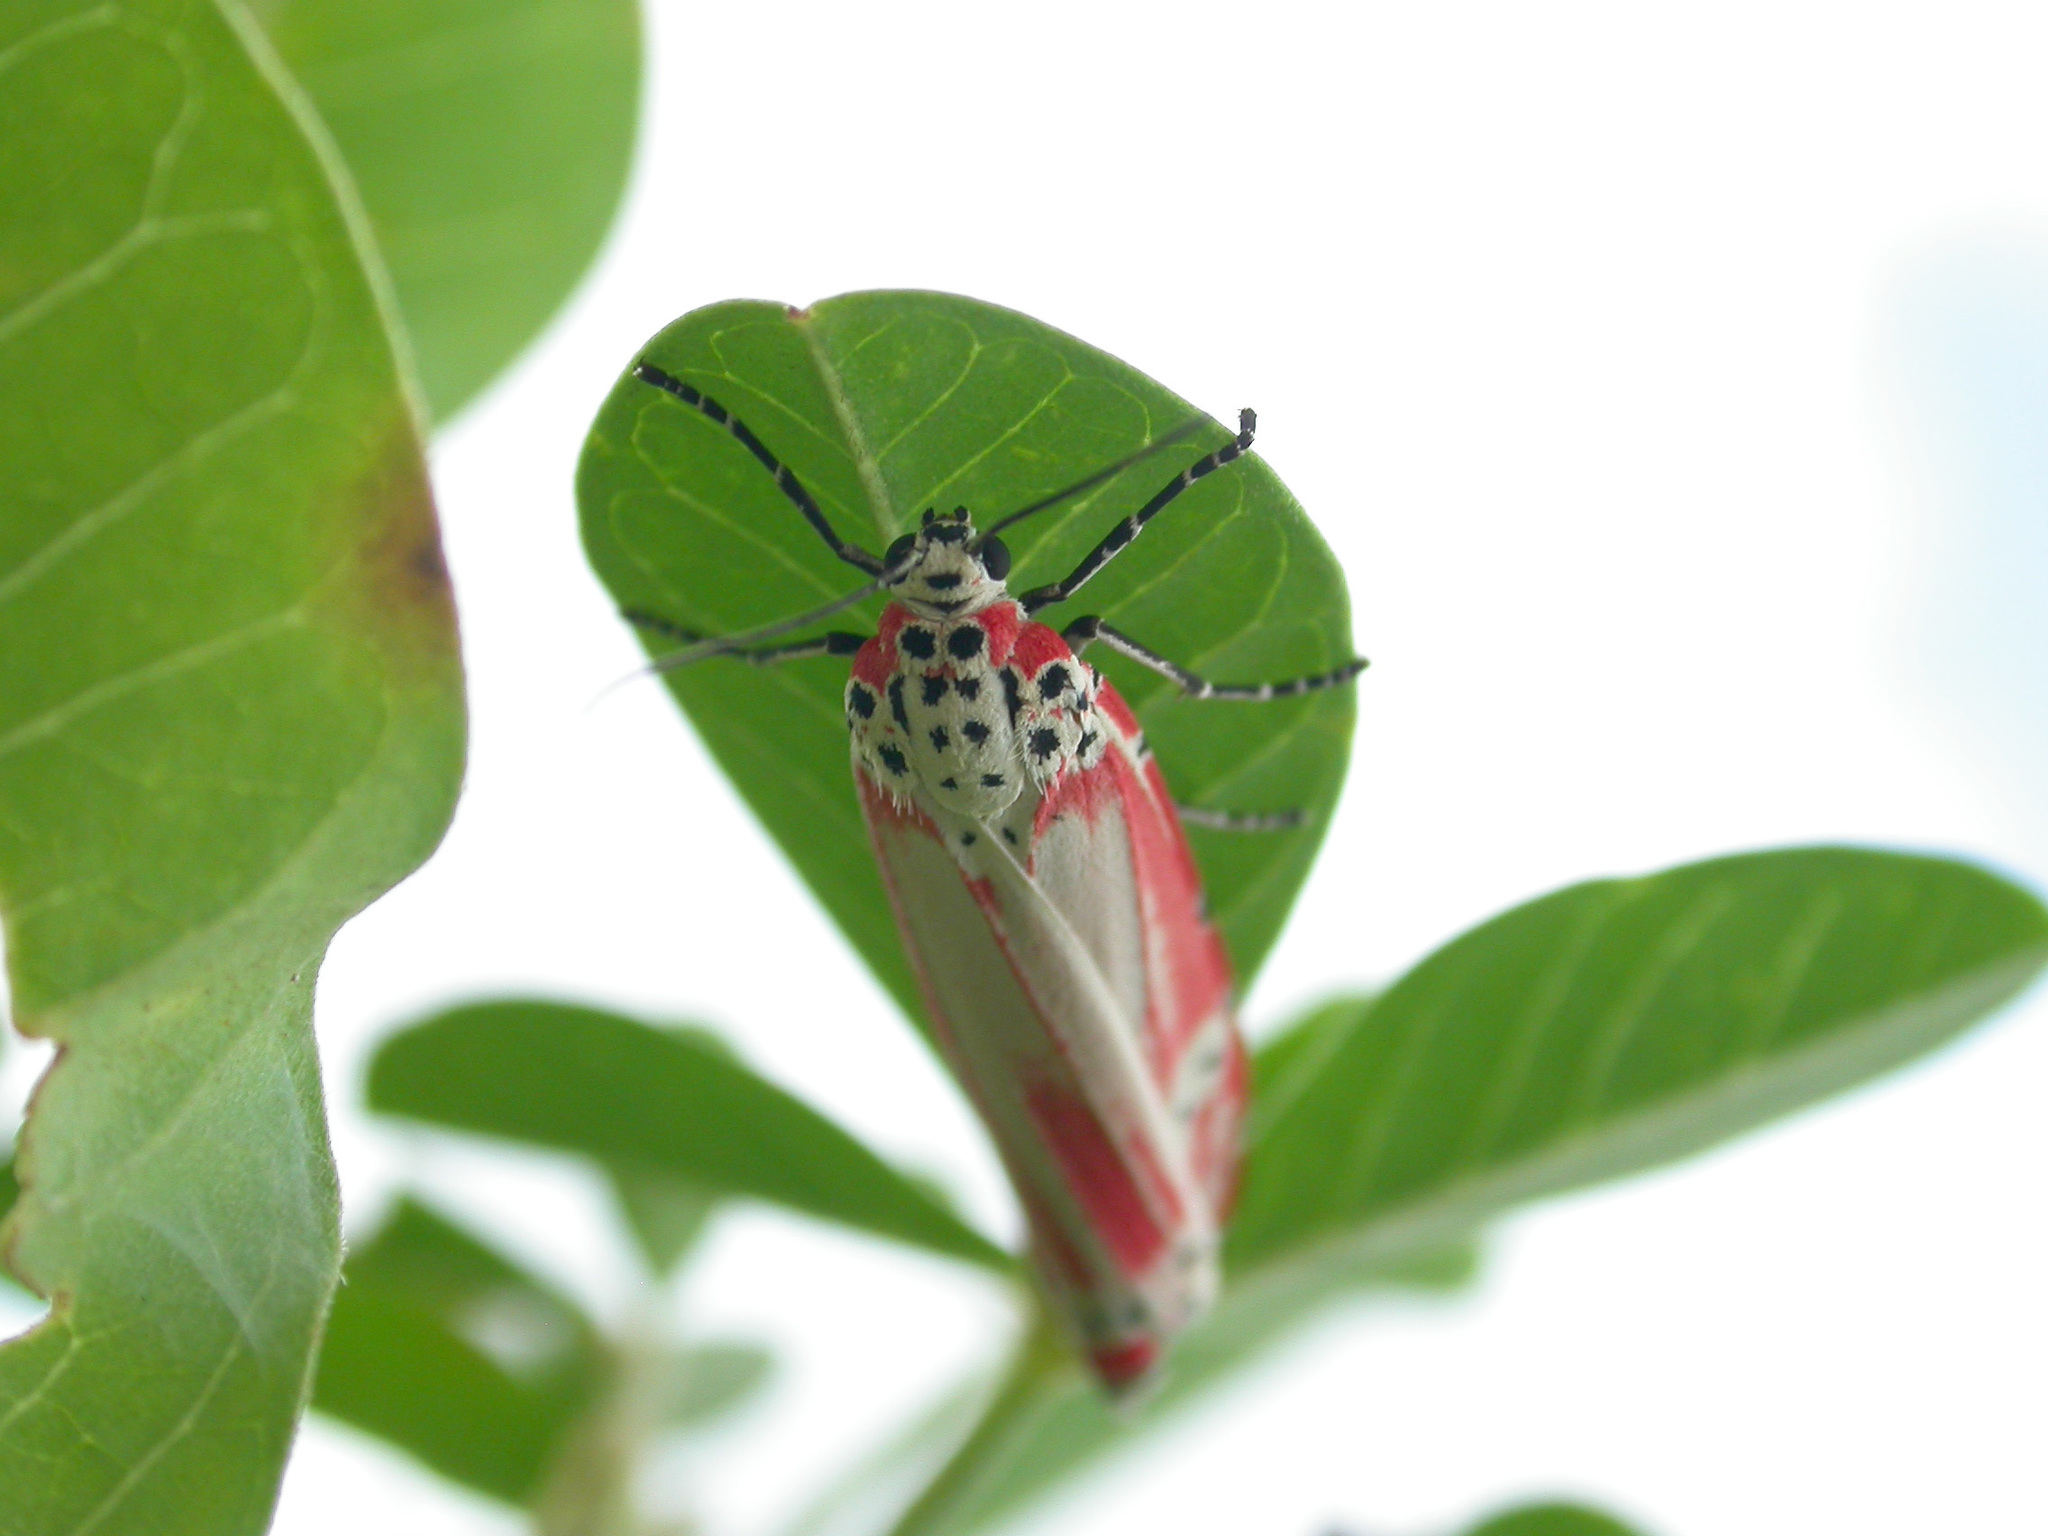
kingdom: Animalia
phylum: Arthropoda
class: Insecta
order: Lepidoptera
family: Erebidae
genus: Utetheisa
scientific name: Utetheisa ornatrix
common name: Beautiful utetheisa
